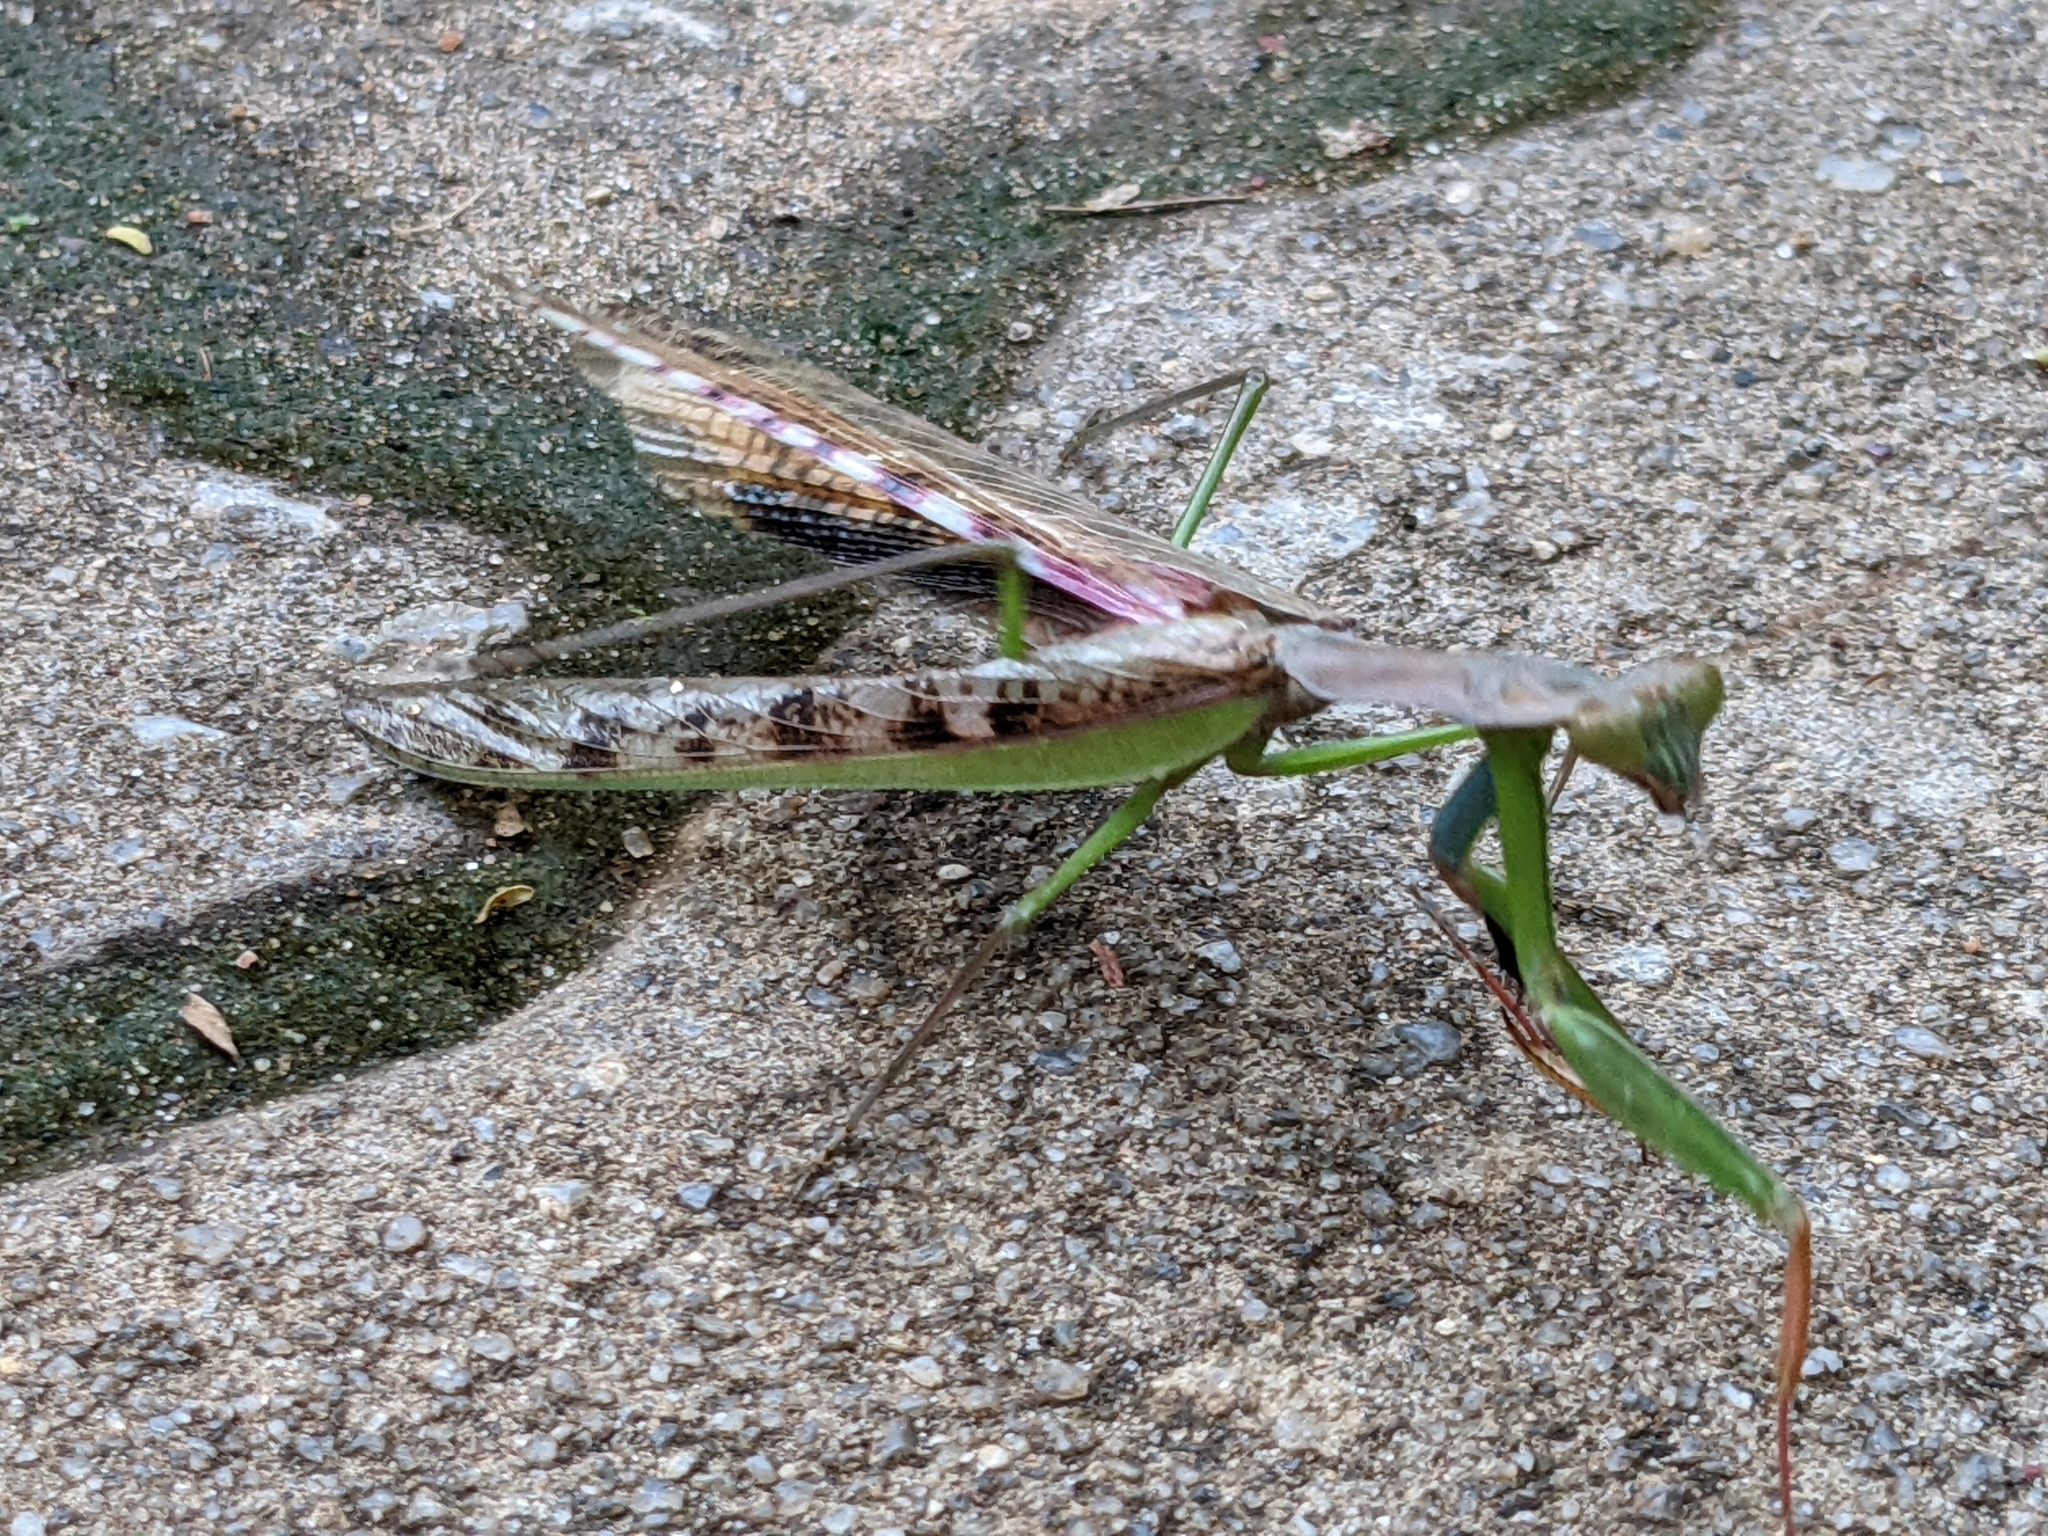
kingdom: Animalia
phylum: Arthropoda
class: Insecta
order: Mantodea
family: Mantidae
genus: Polyspilota
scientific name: Polyspilota aeruginosa
